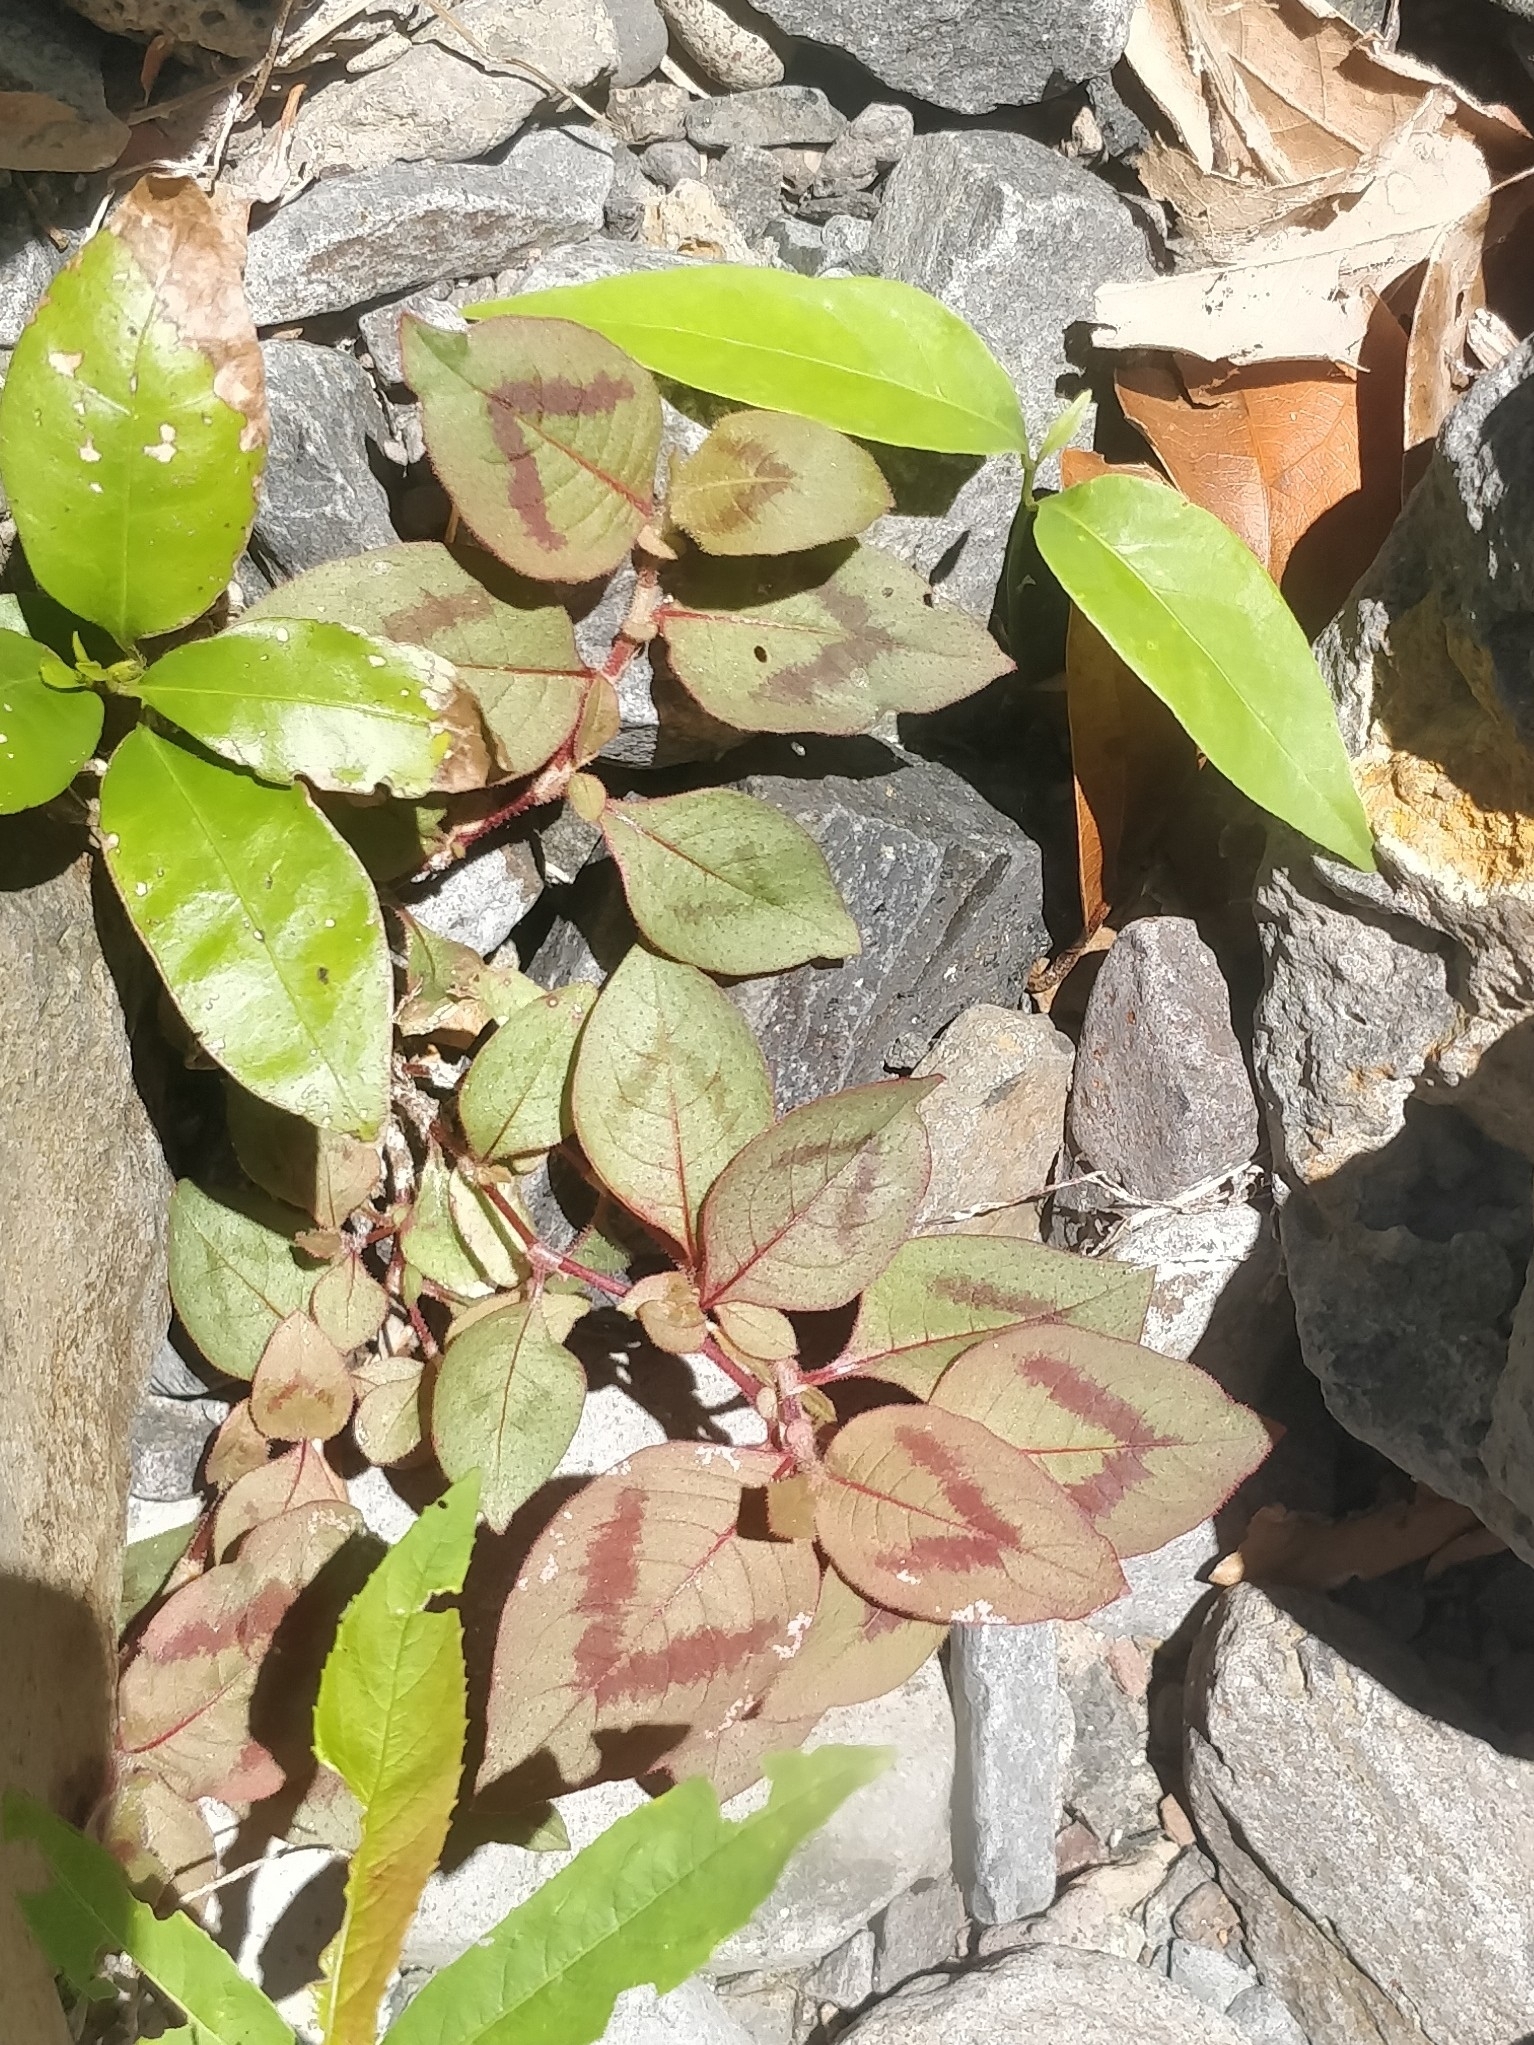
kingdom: Plantae
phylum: Tracheophyta
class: Magnoliopsida
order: Caryophyllales
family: Polygonaceae
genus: Persicaria
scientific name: Persicaria capitata
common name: Pinkhead smartweed
